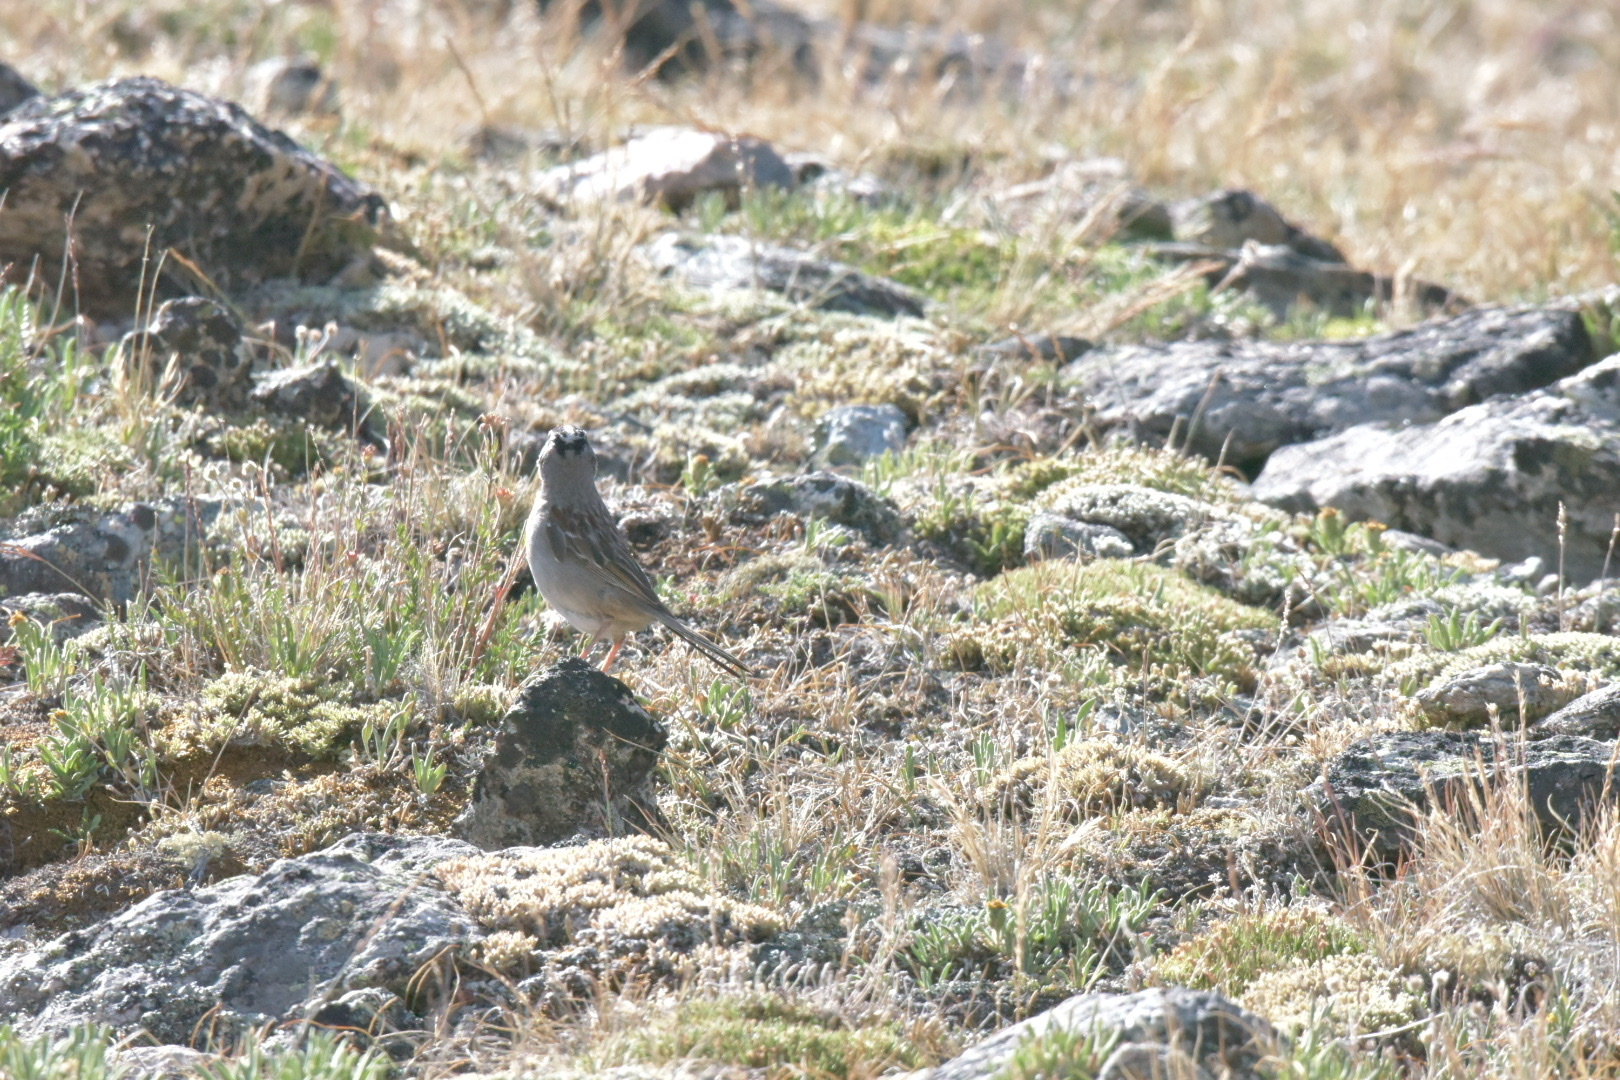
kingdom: Animalia
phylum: Chordata
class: Aves
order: Passeriformes
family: Passerellidae
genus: Zonotrichia
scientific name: Zonotrichia leucophrys
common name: White-crowned sparrow
